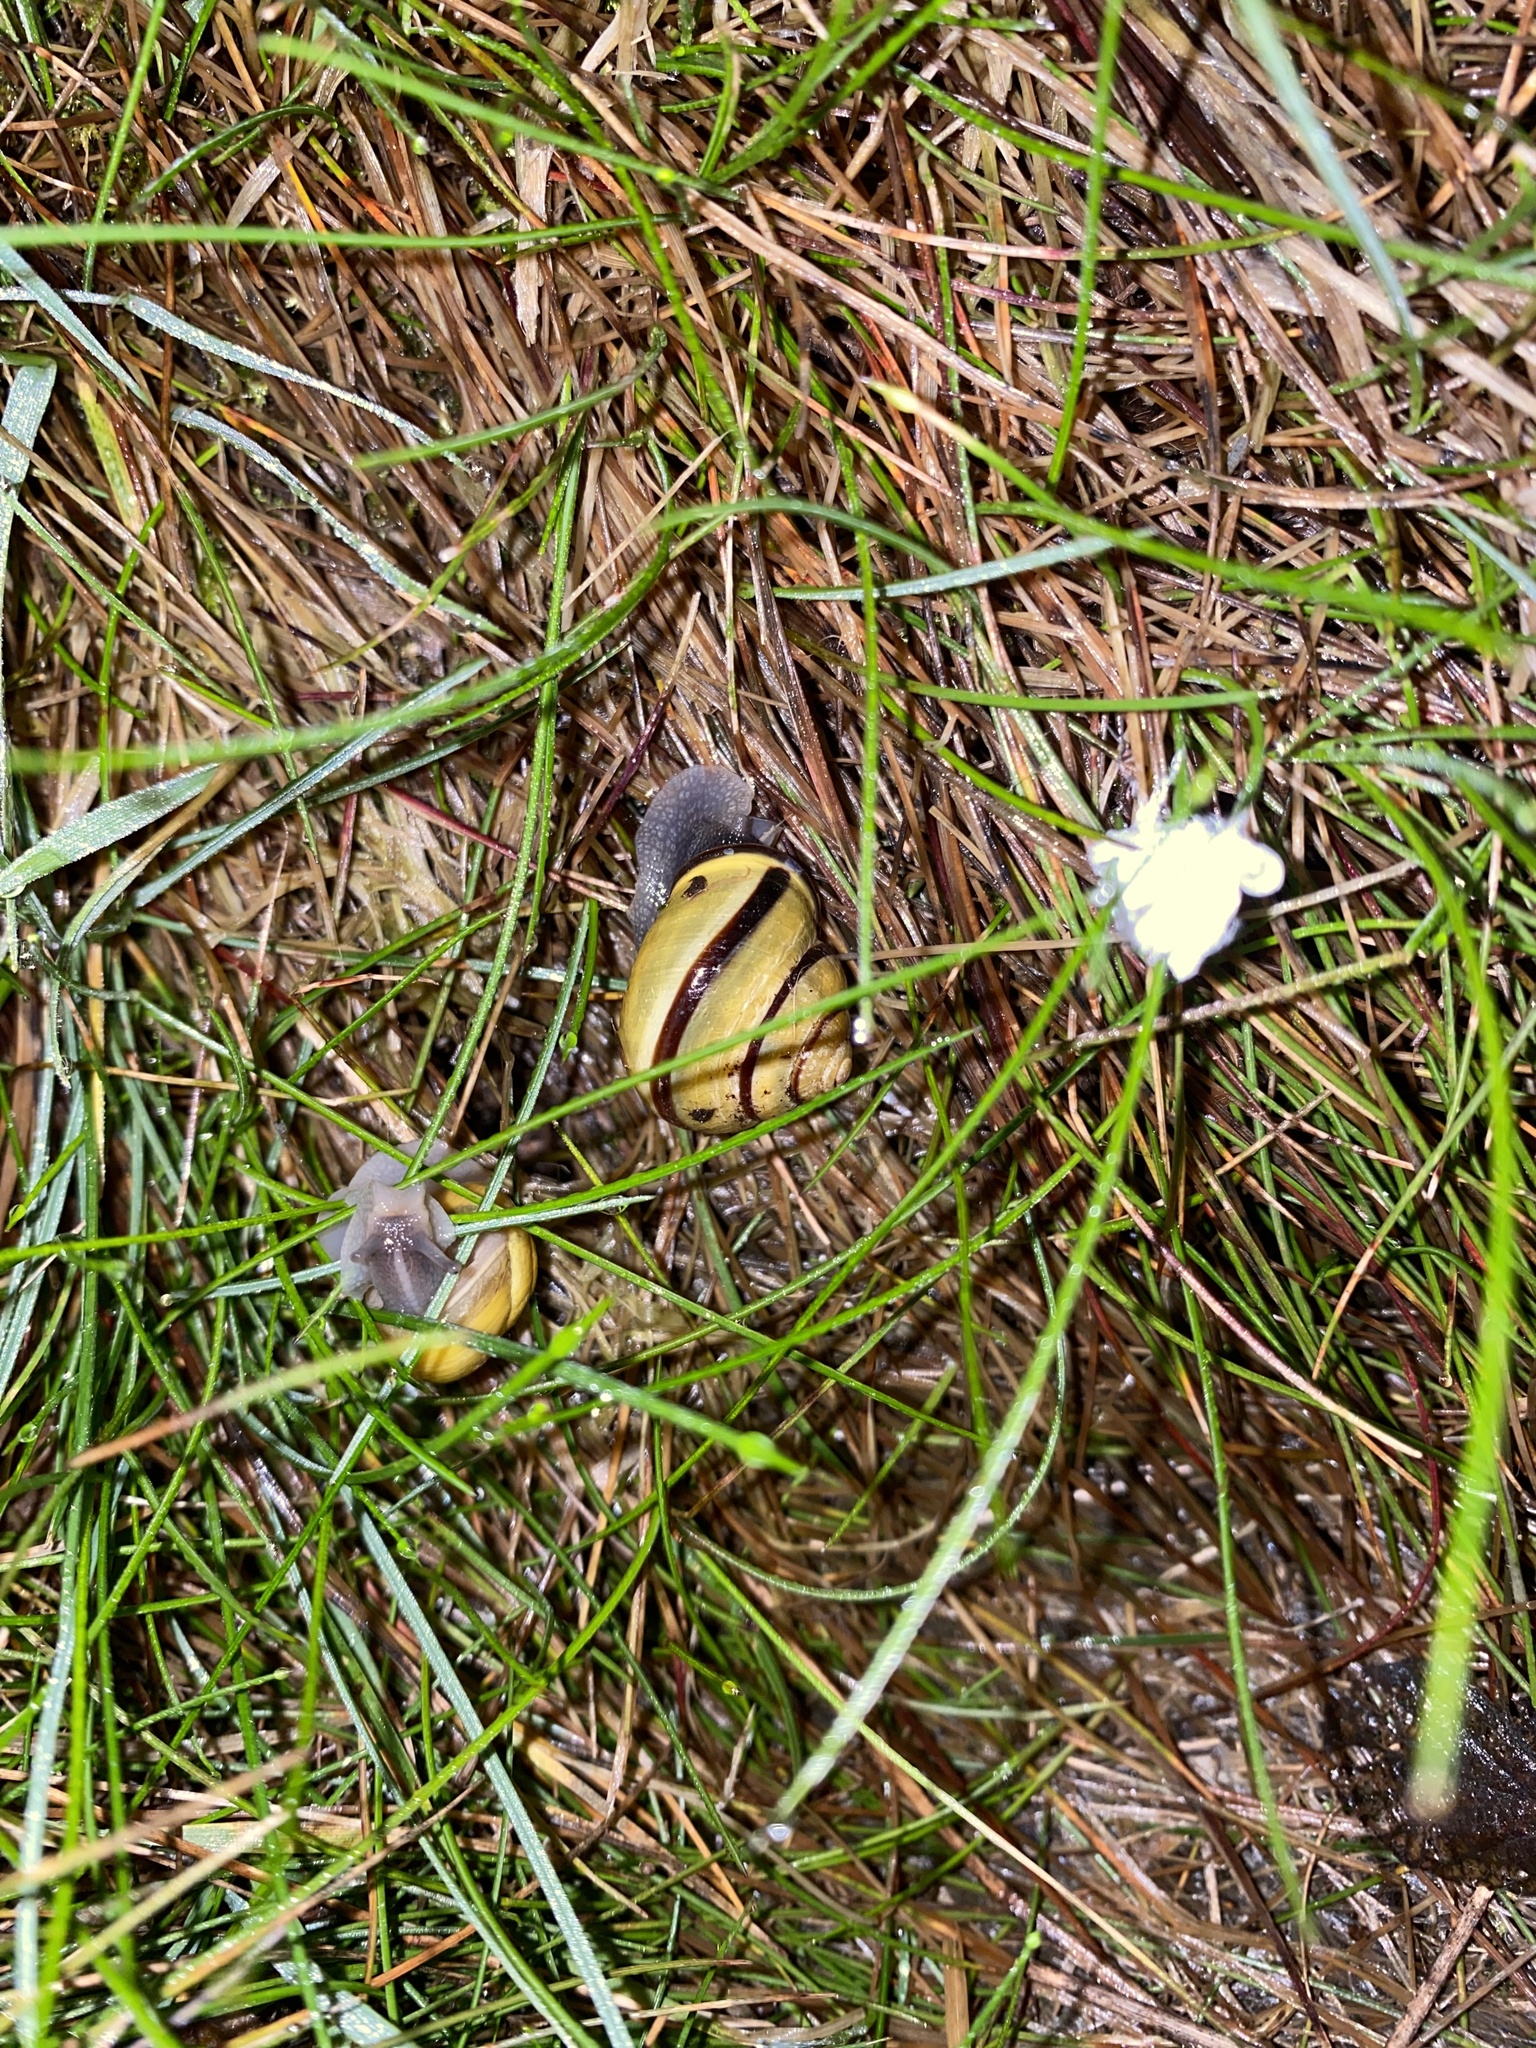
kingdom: Animalia
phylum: Mollusca
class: Gastropoda
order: Stylommatophora
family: Helicidae
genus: Cepaea
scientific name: Cepaea nemoralis
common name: Grovesnail
